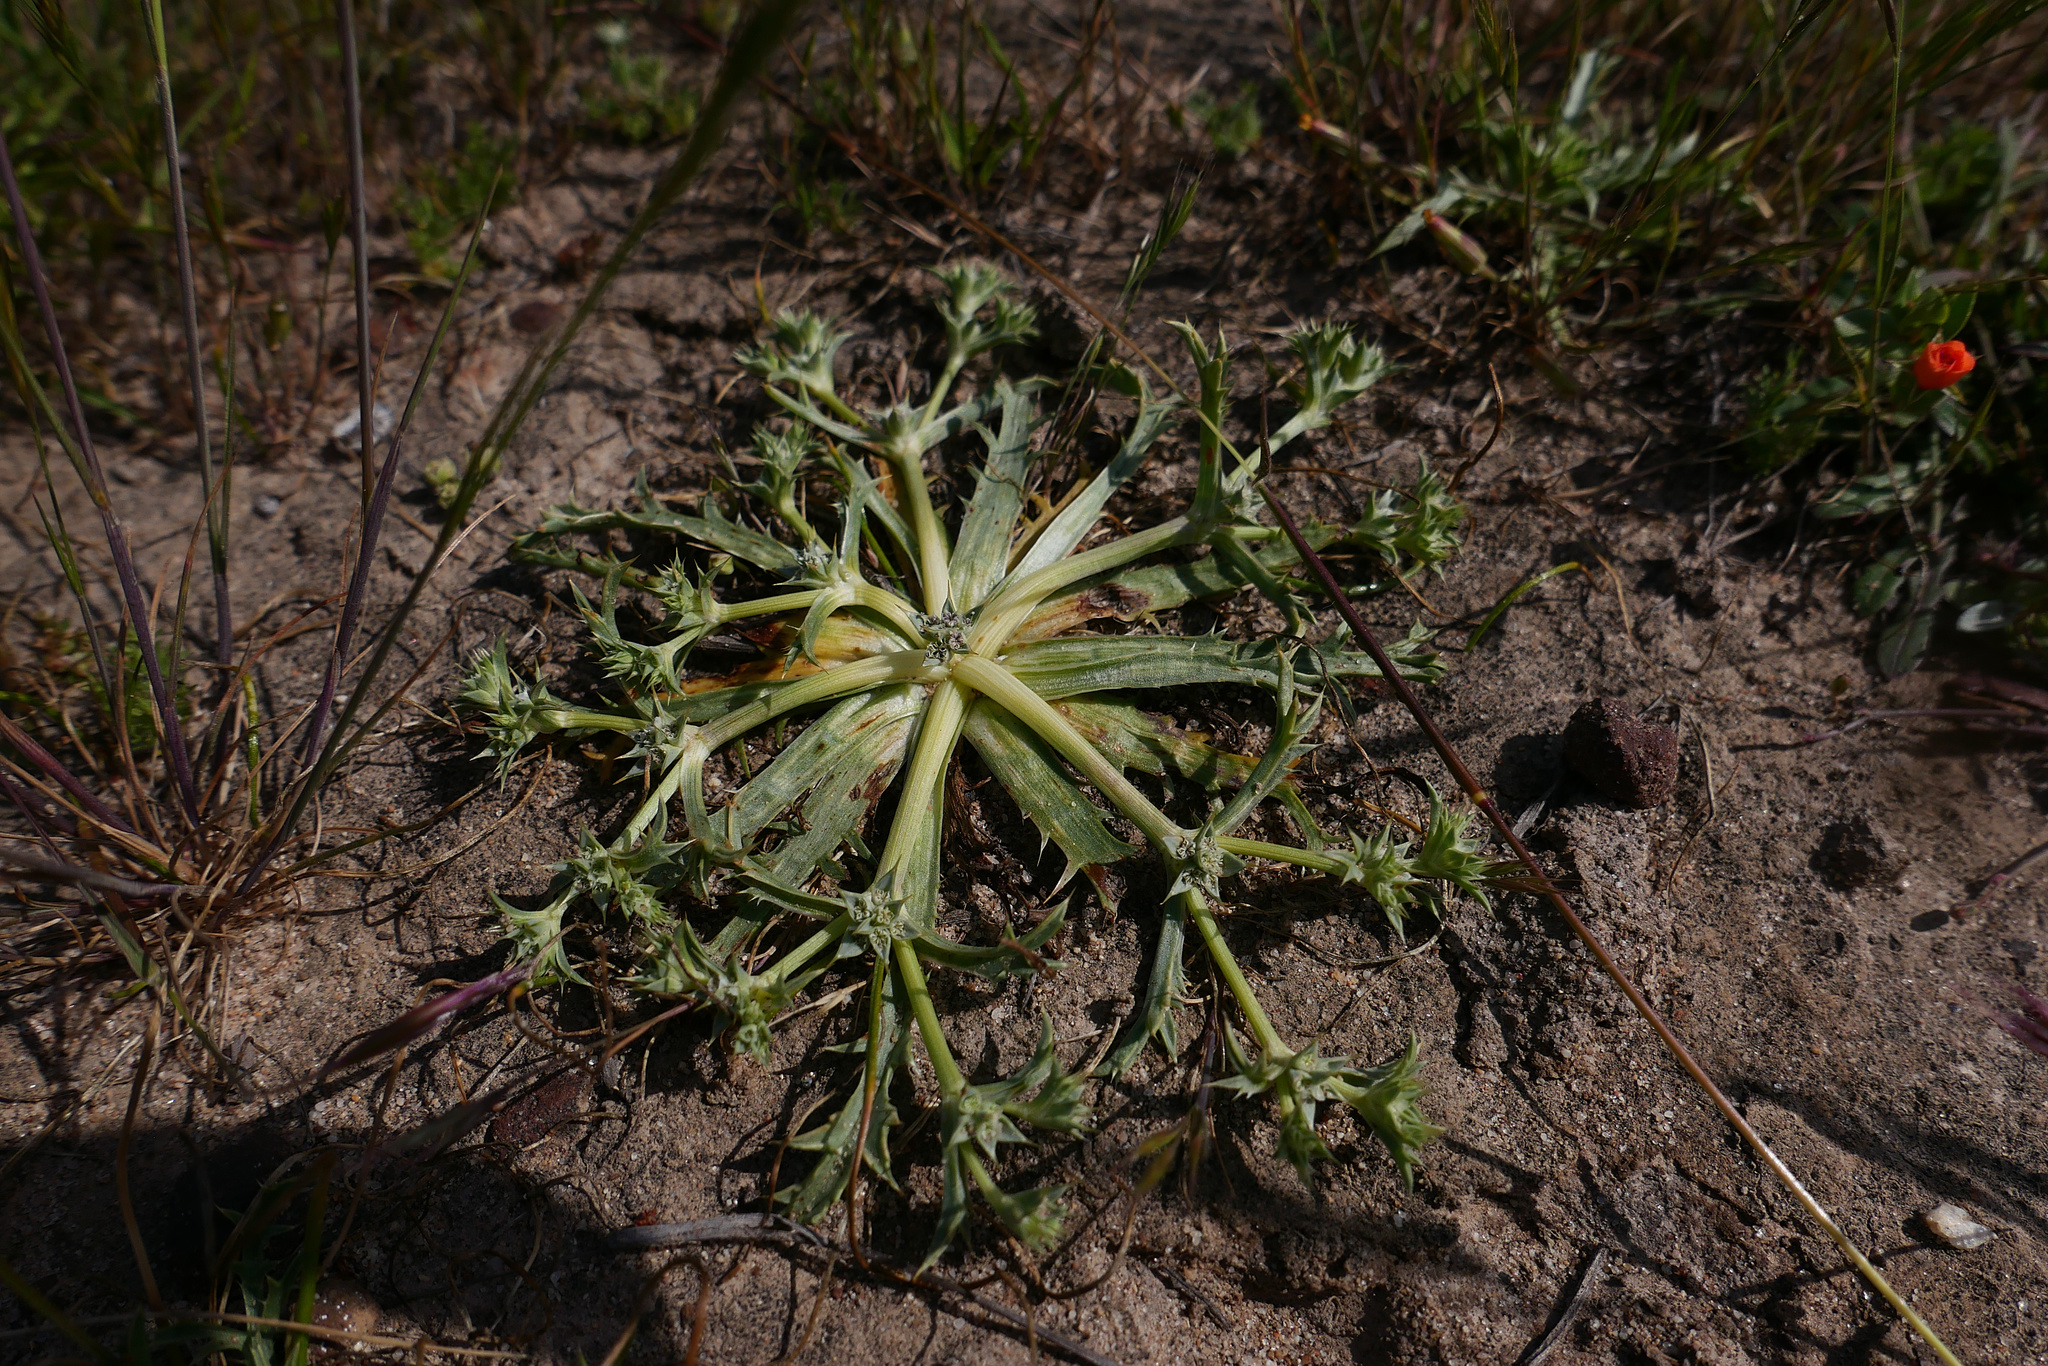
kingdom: Plantae
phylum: Tracheophyta
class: Magnoliopsida
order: Apiales
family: Apiaceae
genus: Eryngium
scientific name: Eryngium montereyense
